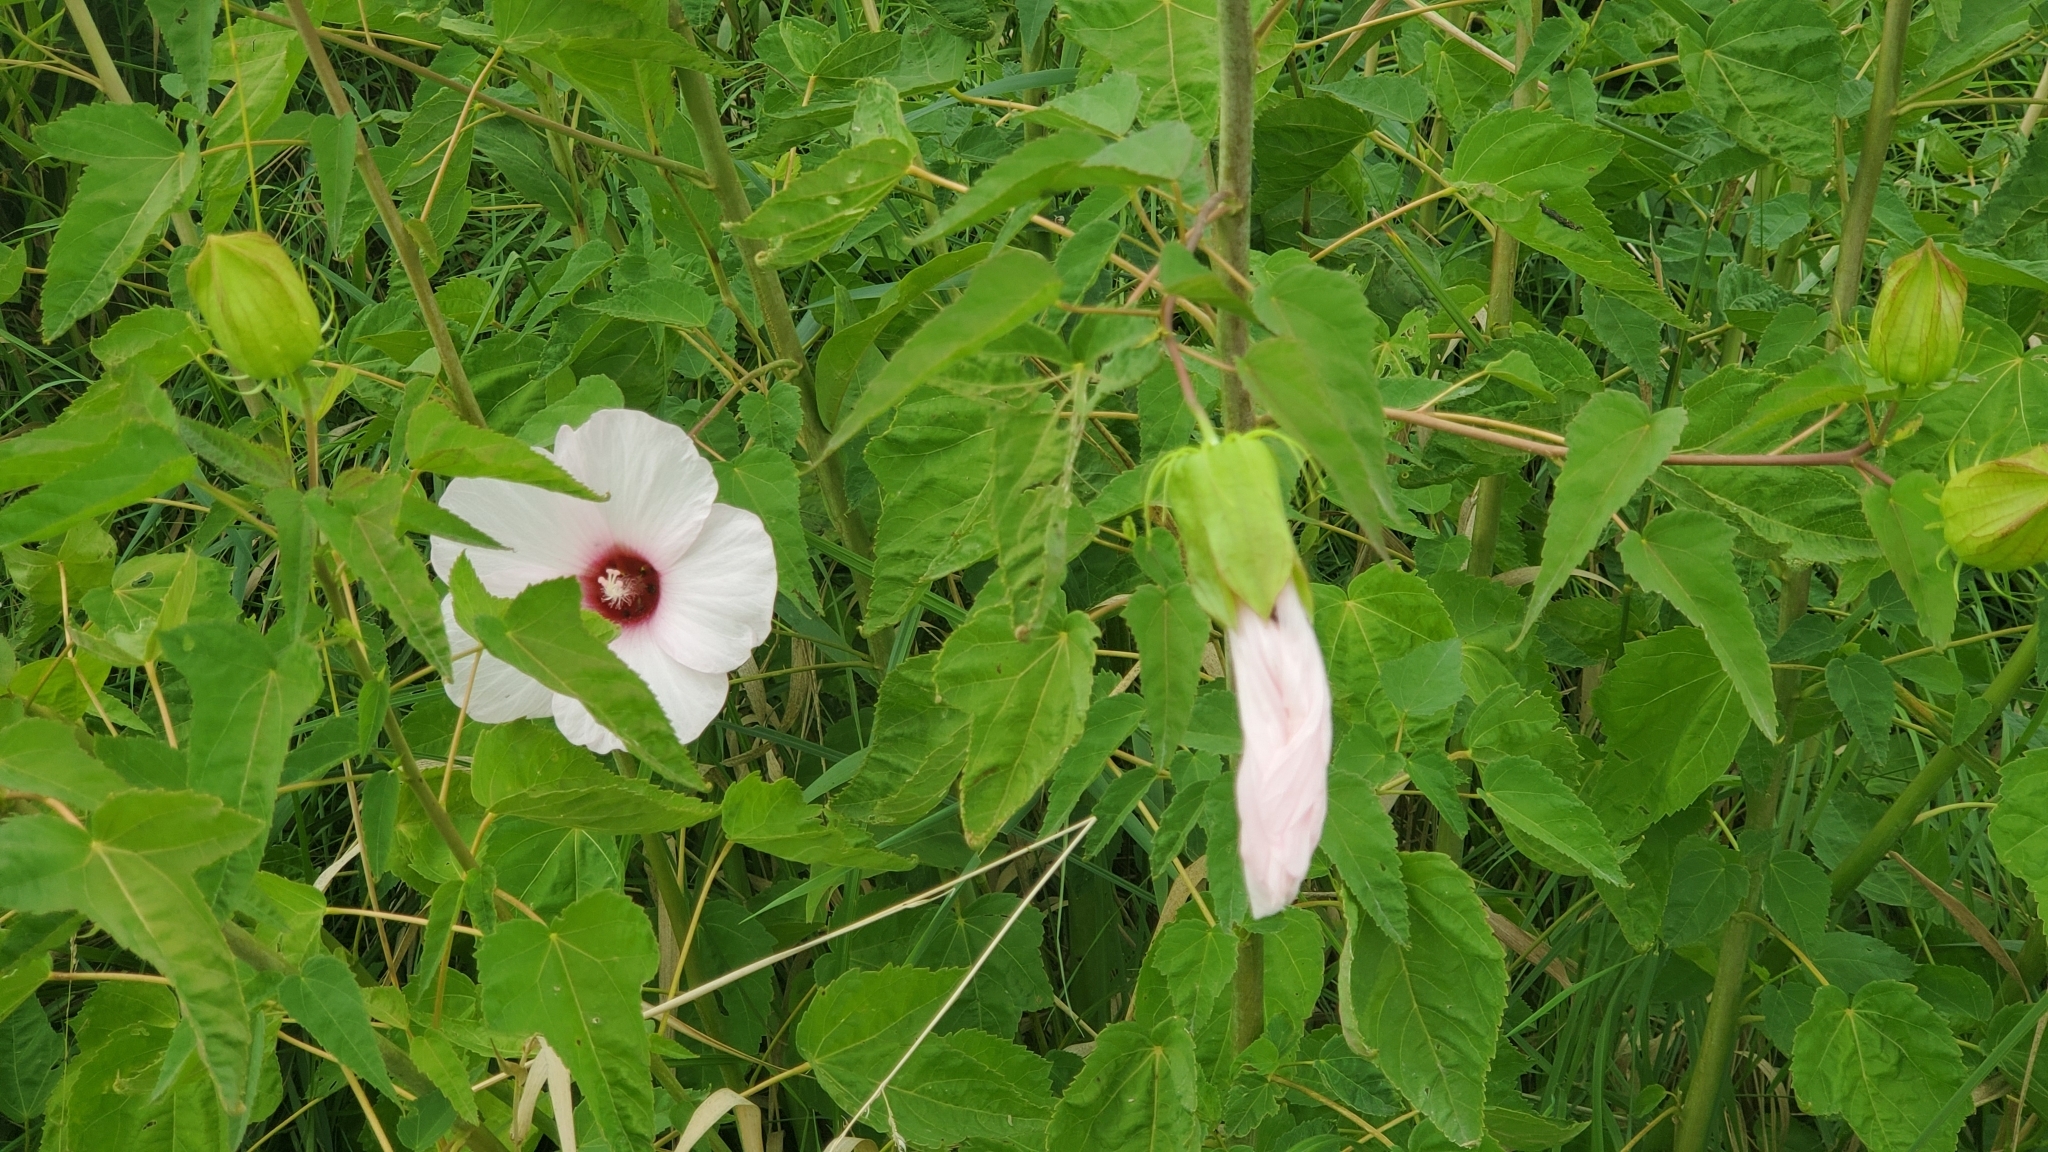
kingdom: Plantae
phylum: Tracheophyta
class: Magnoliopsida
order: Malvales
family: Malvaceae
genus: Hibiscus
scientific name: Hibiscus laevis
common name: Scarlet rose-mallow
